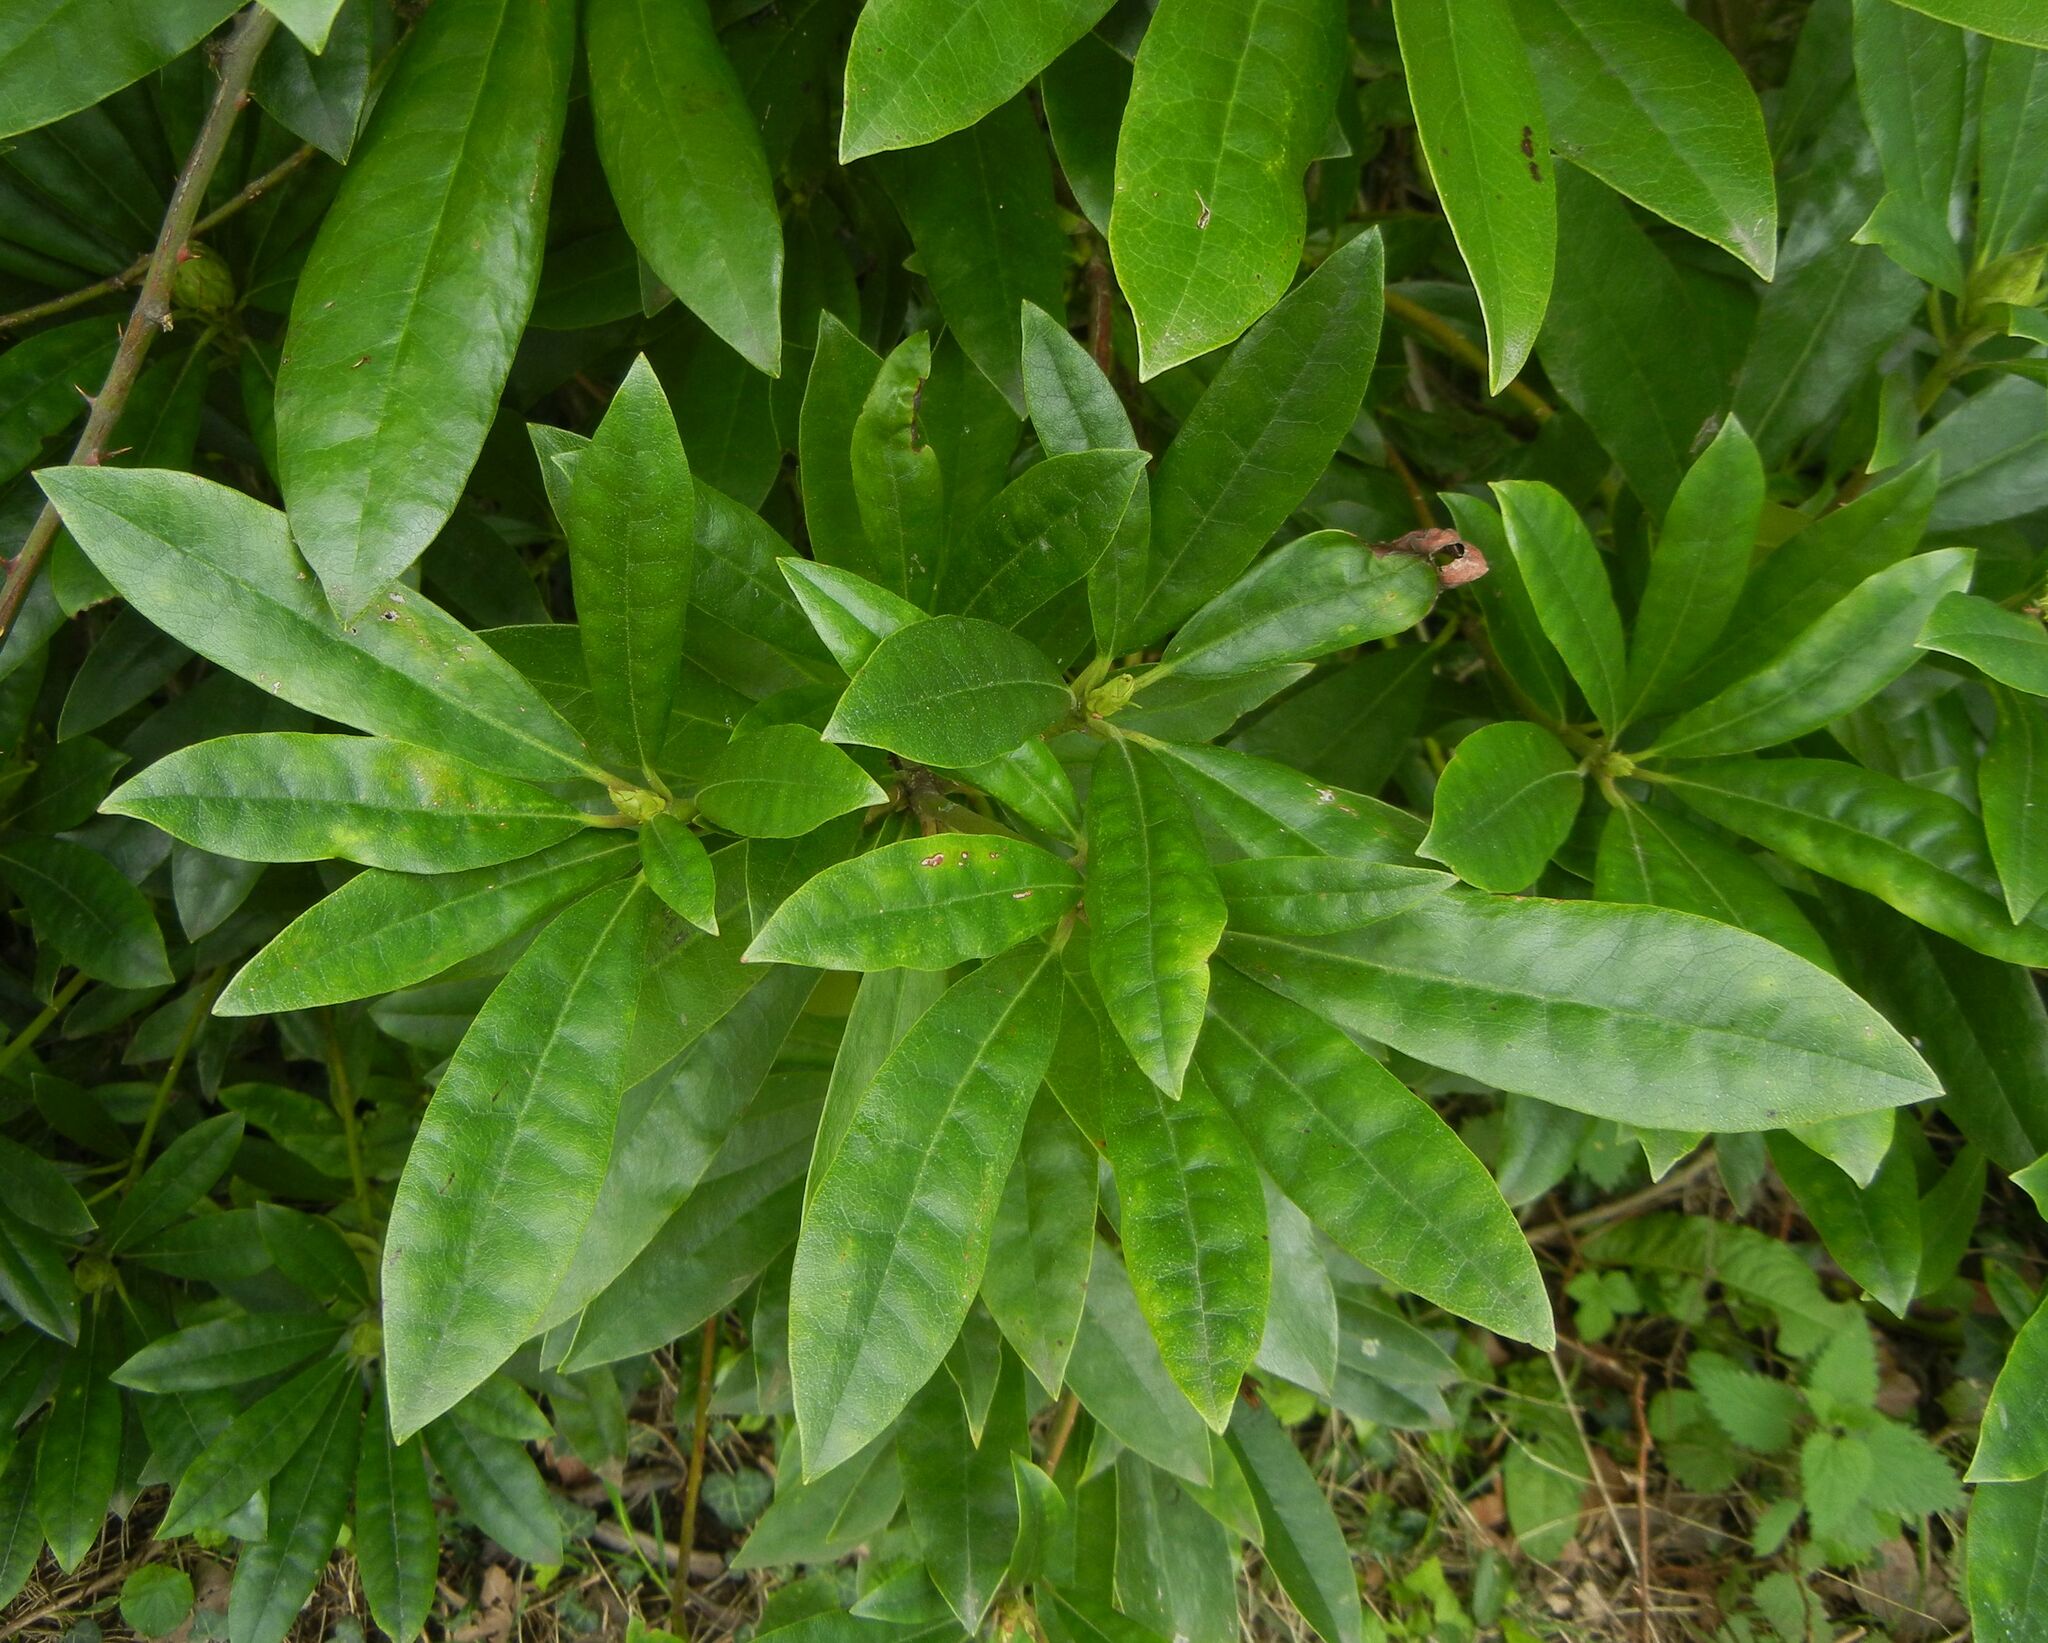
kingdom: Plantae
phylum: Tracheophyta
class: Magnoliopsida
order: Ericales
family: Ericaceae
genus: Rhododendron
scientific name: Rhododendron ponticum
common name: Rhododendron
